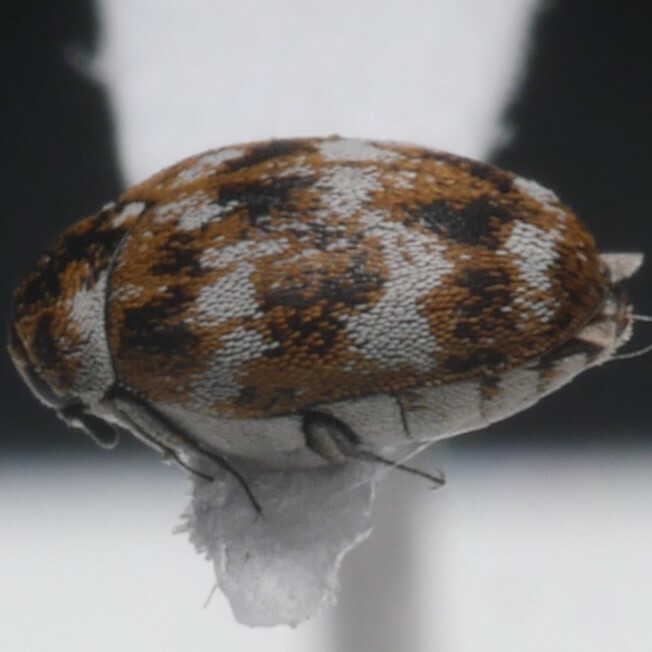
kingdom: Animalia
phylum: Arthropoda
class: Insecta
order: Coleoptera
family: Dermestidae
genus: Anthrenus
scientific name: Anthrenus verbasci
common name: Varied carpet beetle
